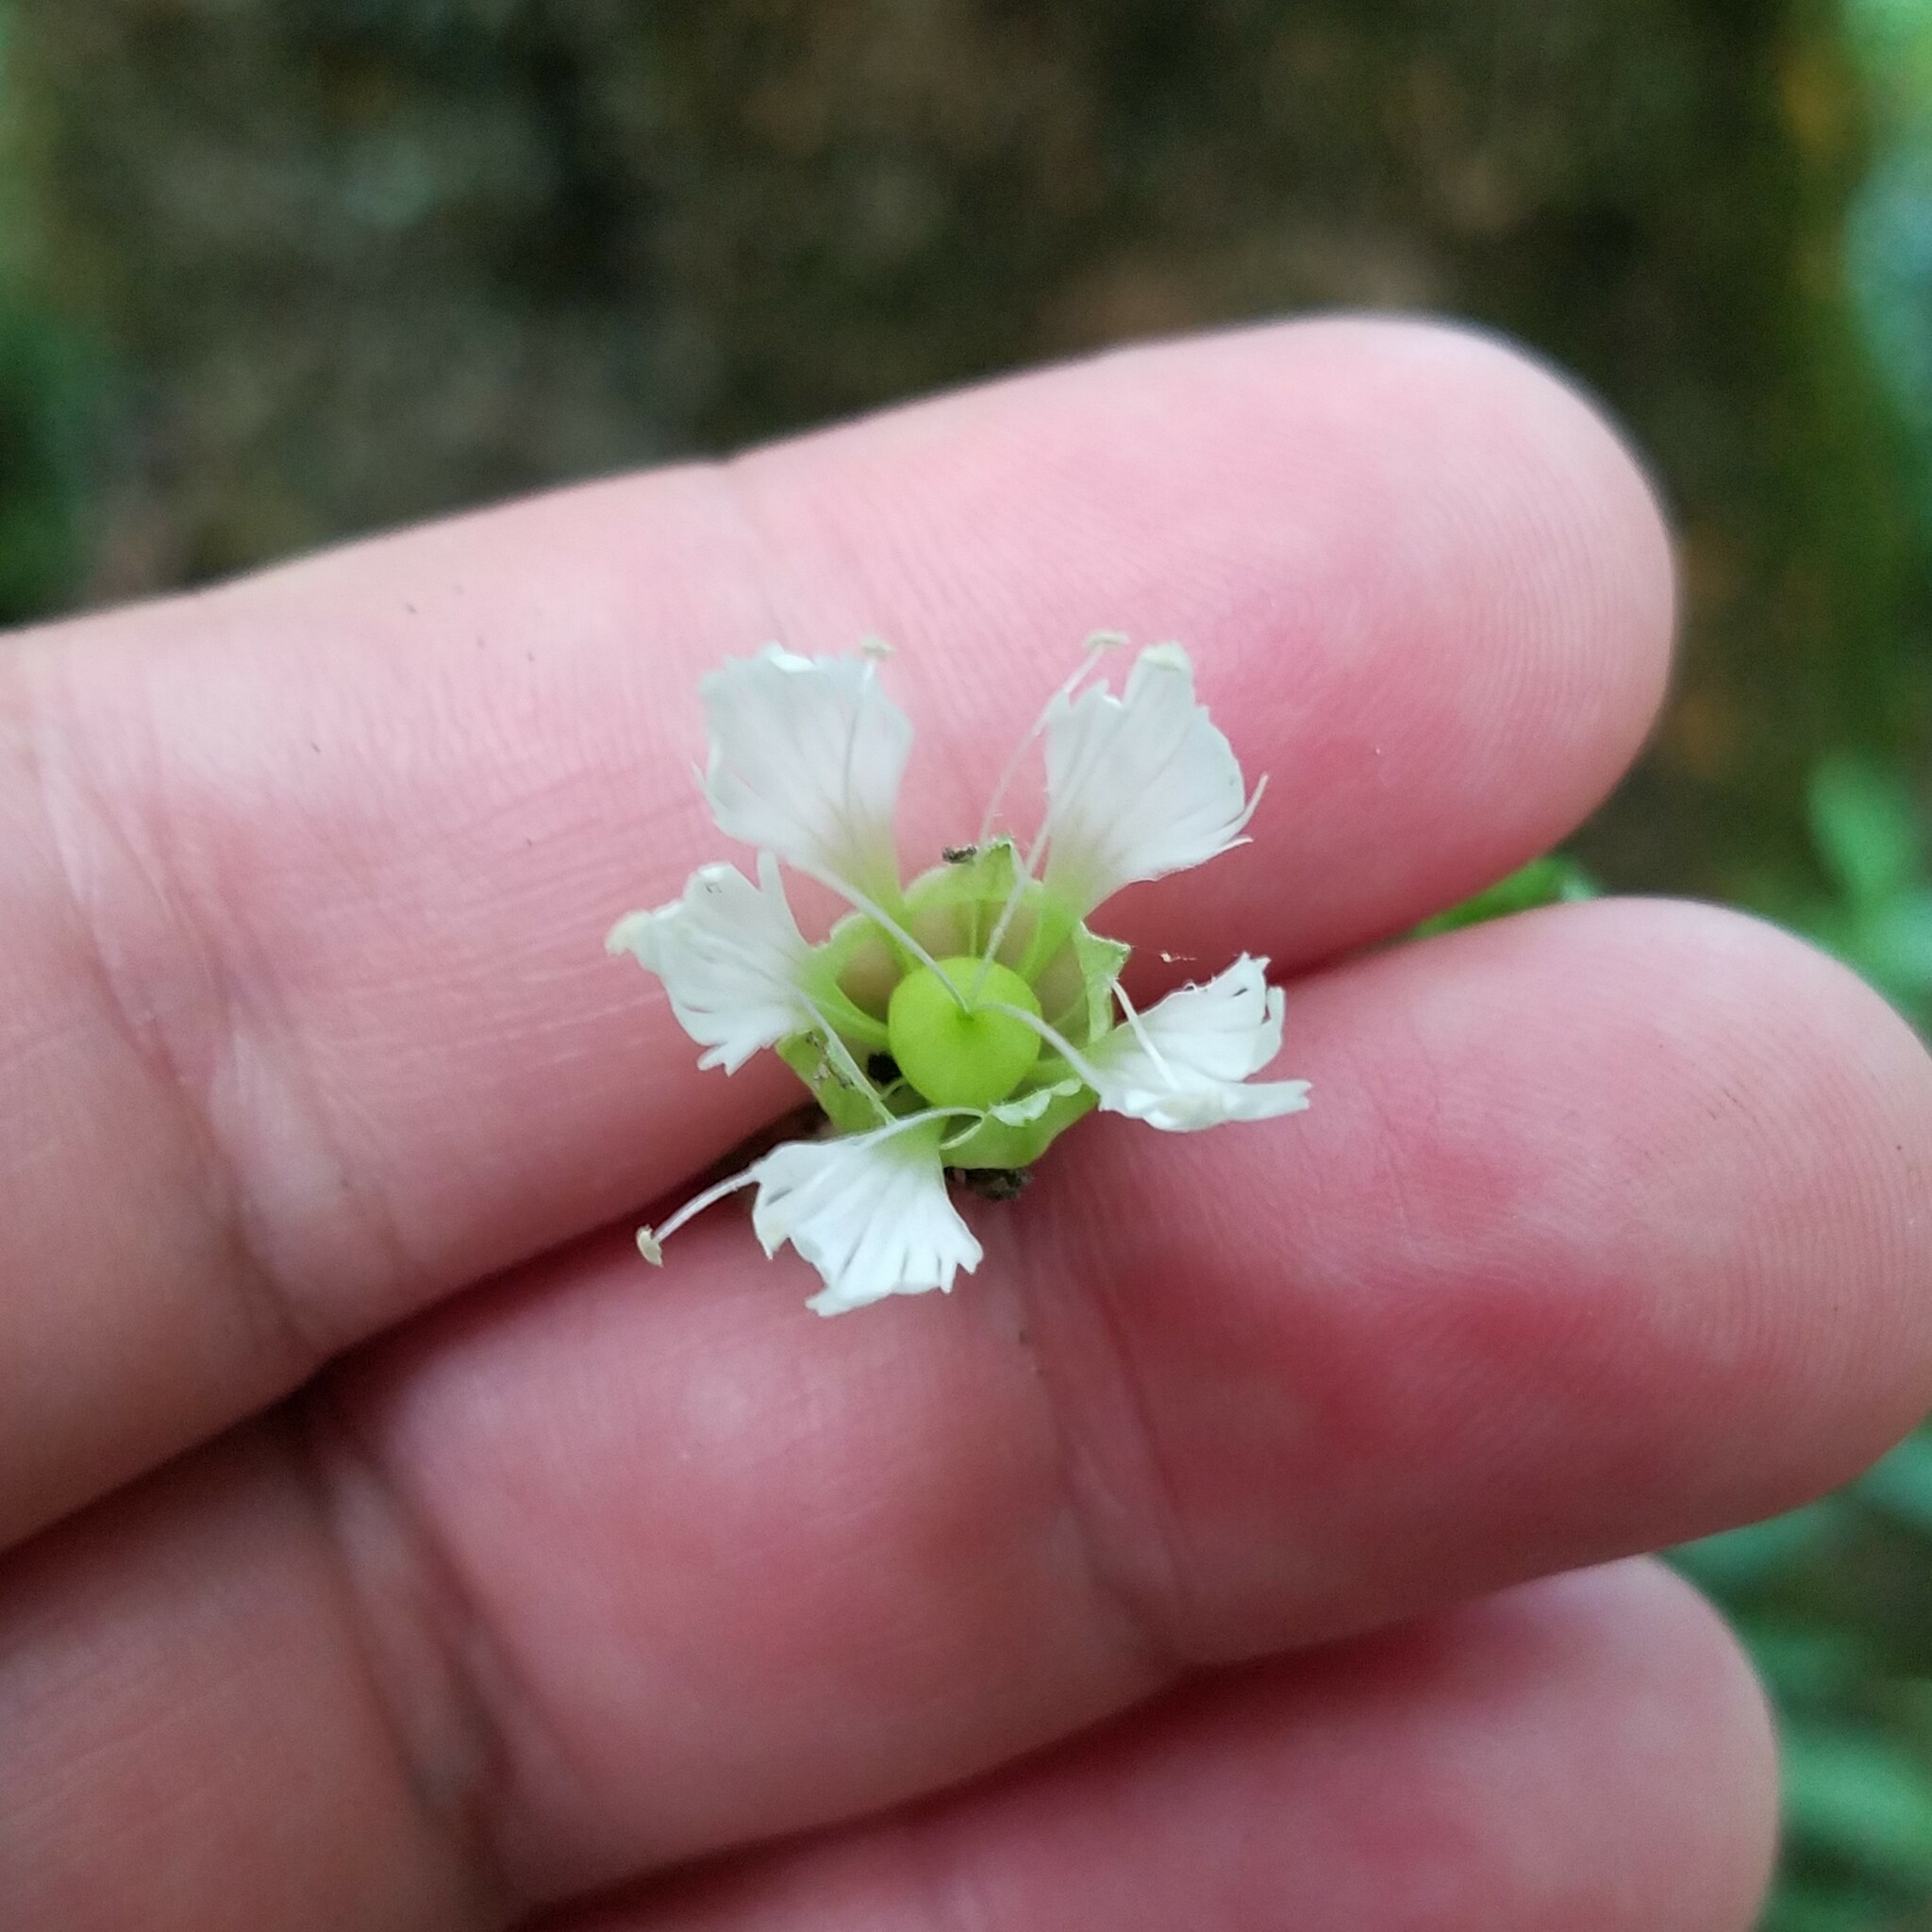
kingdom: Plantae
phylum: Tracheophyta
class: Magnoliopsida
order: Caryophyllales
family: Caryophyllaceae
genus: Silene
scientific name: Silene stellata
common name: Starry campion
